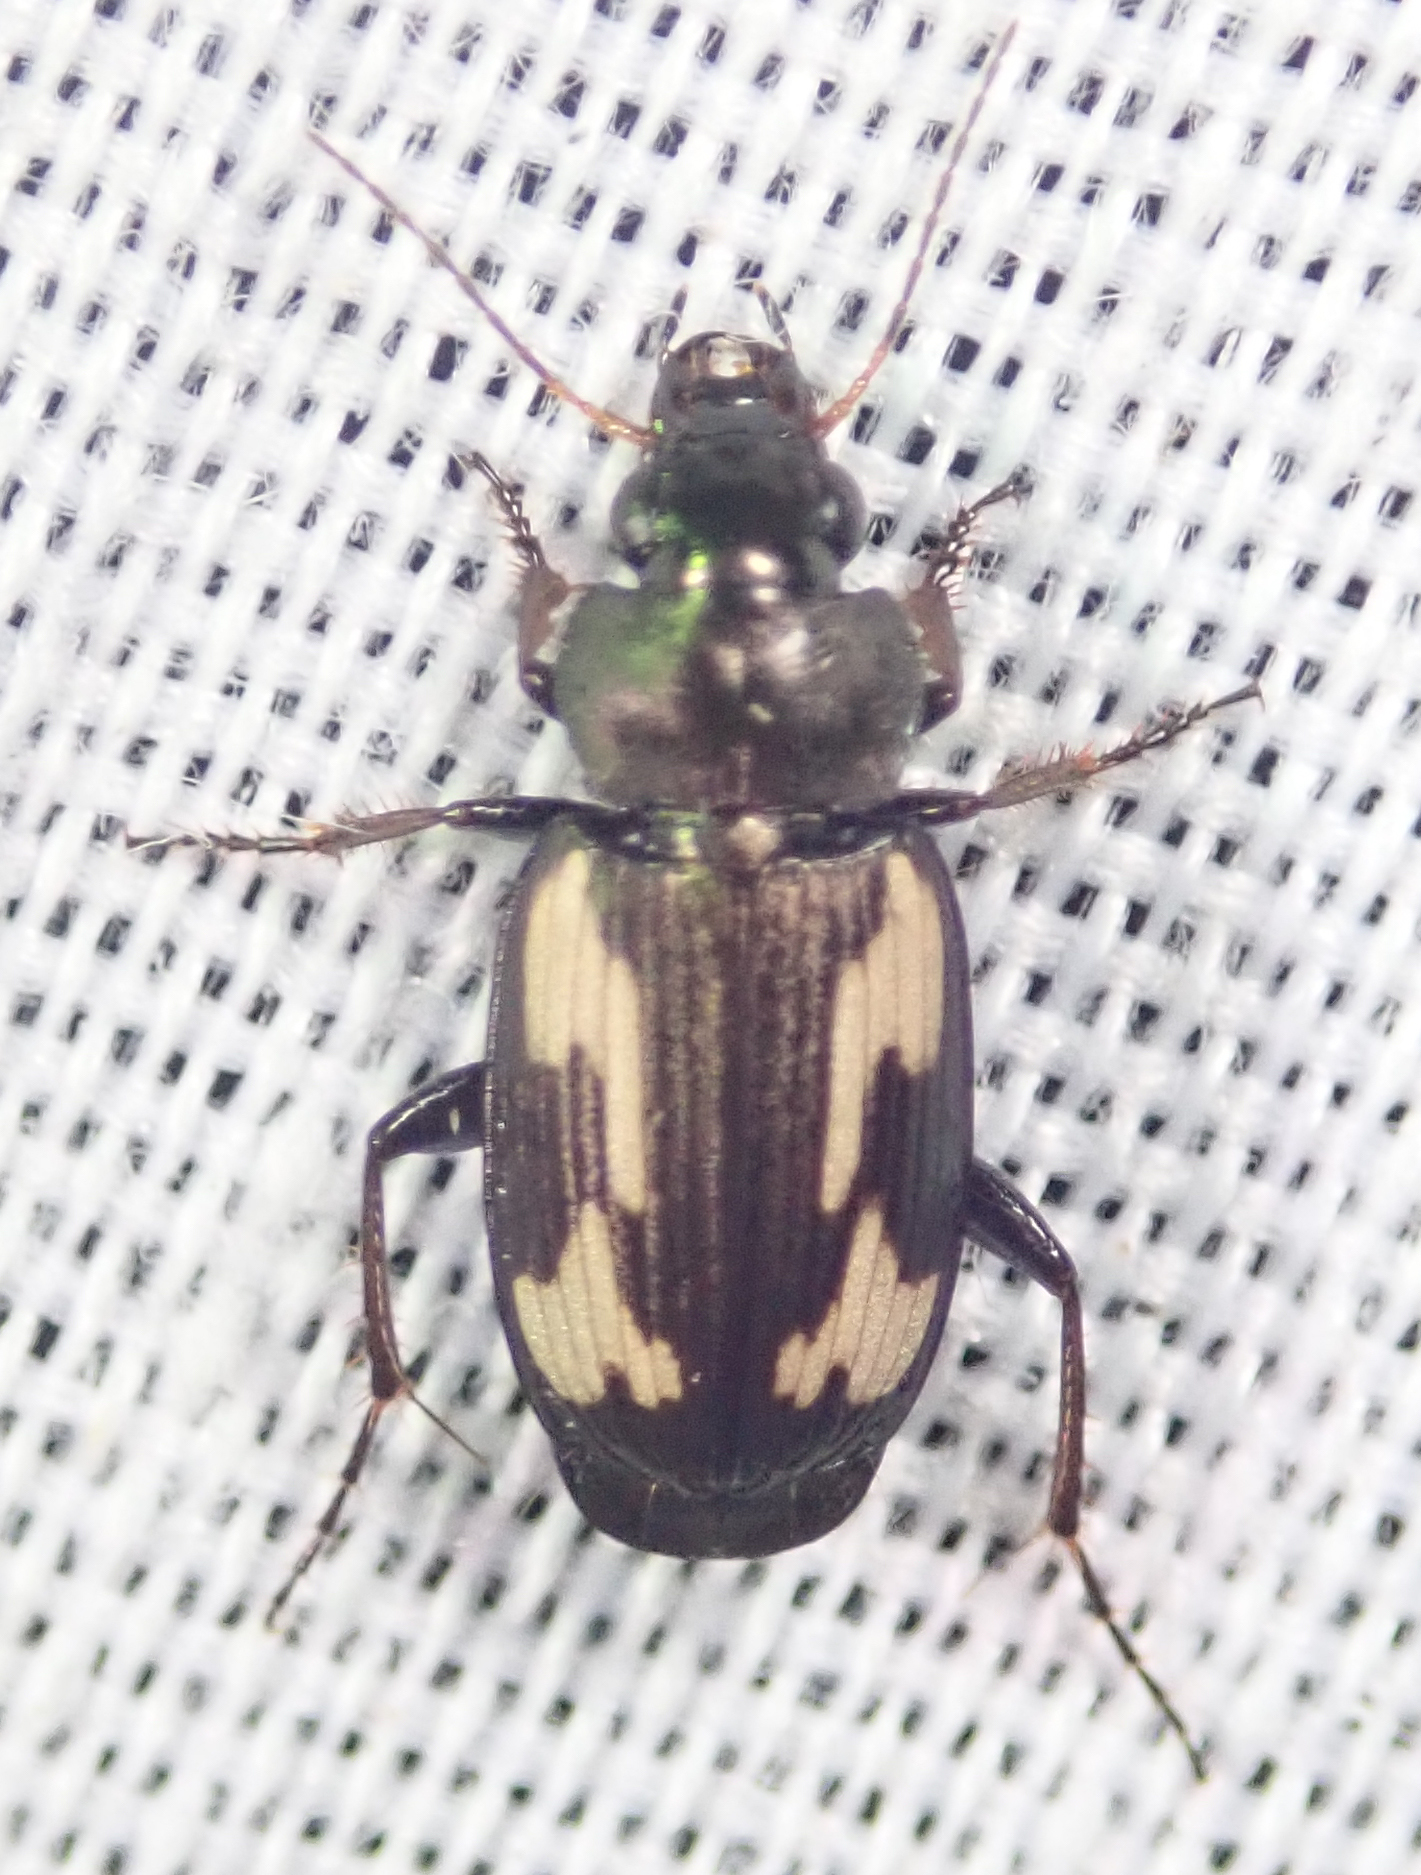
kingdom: Animalia
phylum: Arthropoda
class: Insecta
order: Coleoptera
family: Carabidae
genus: Tetragonoderus
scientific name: Tetragonoderus thunbergi
